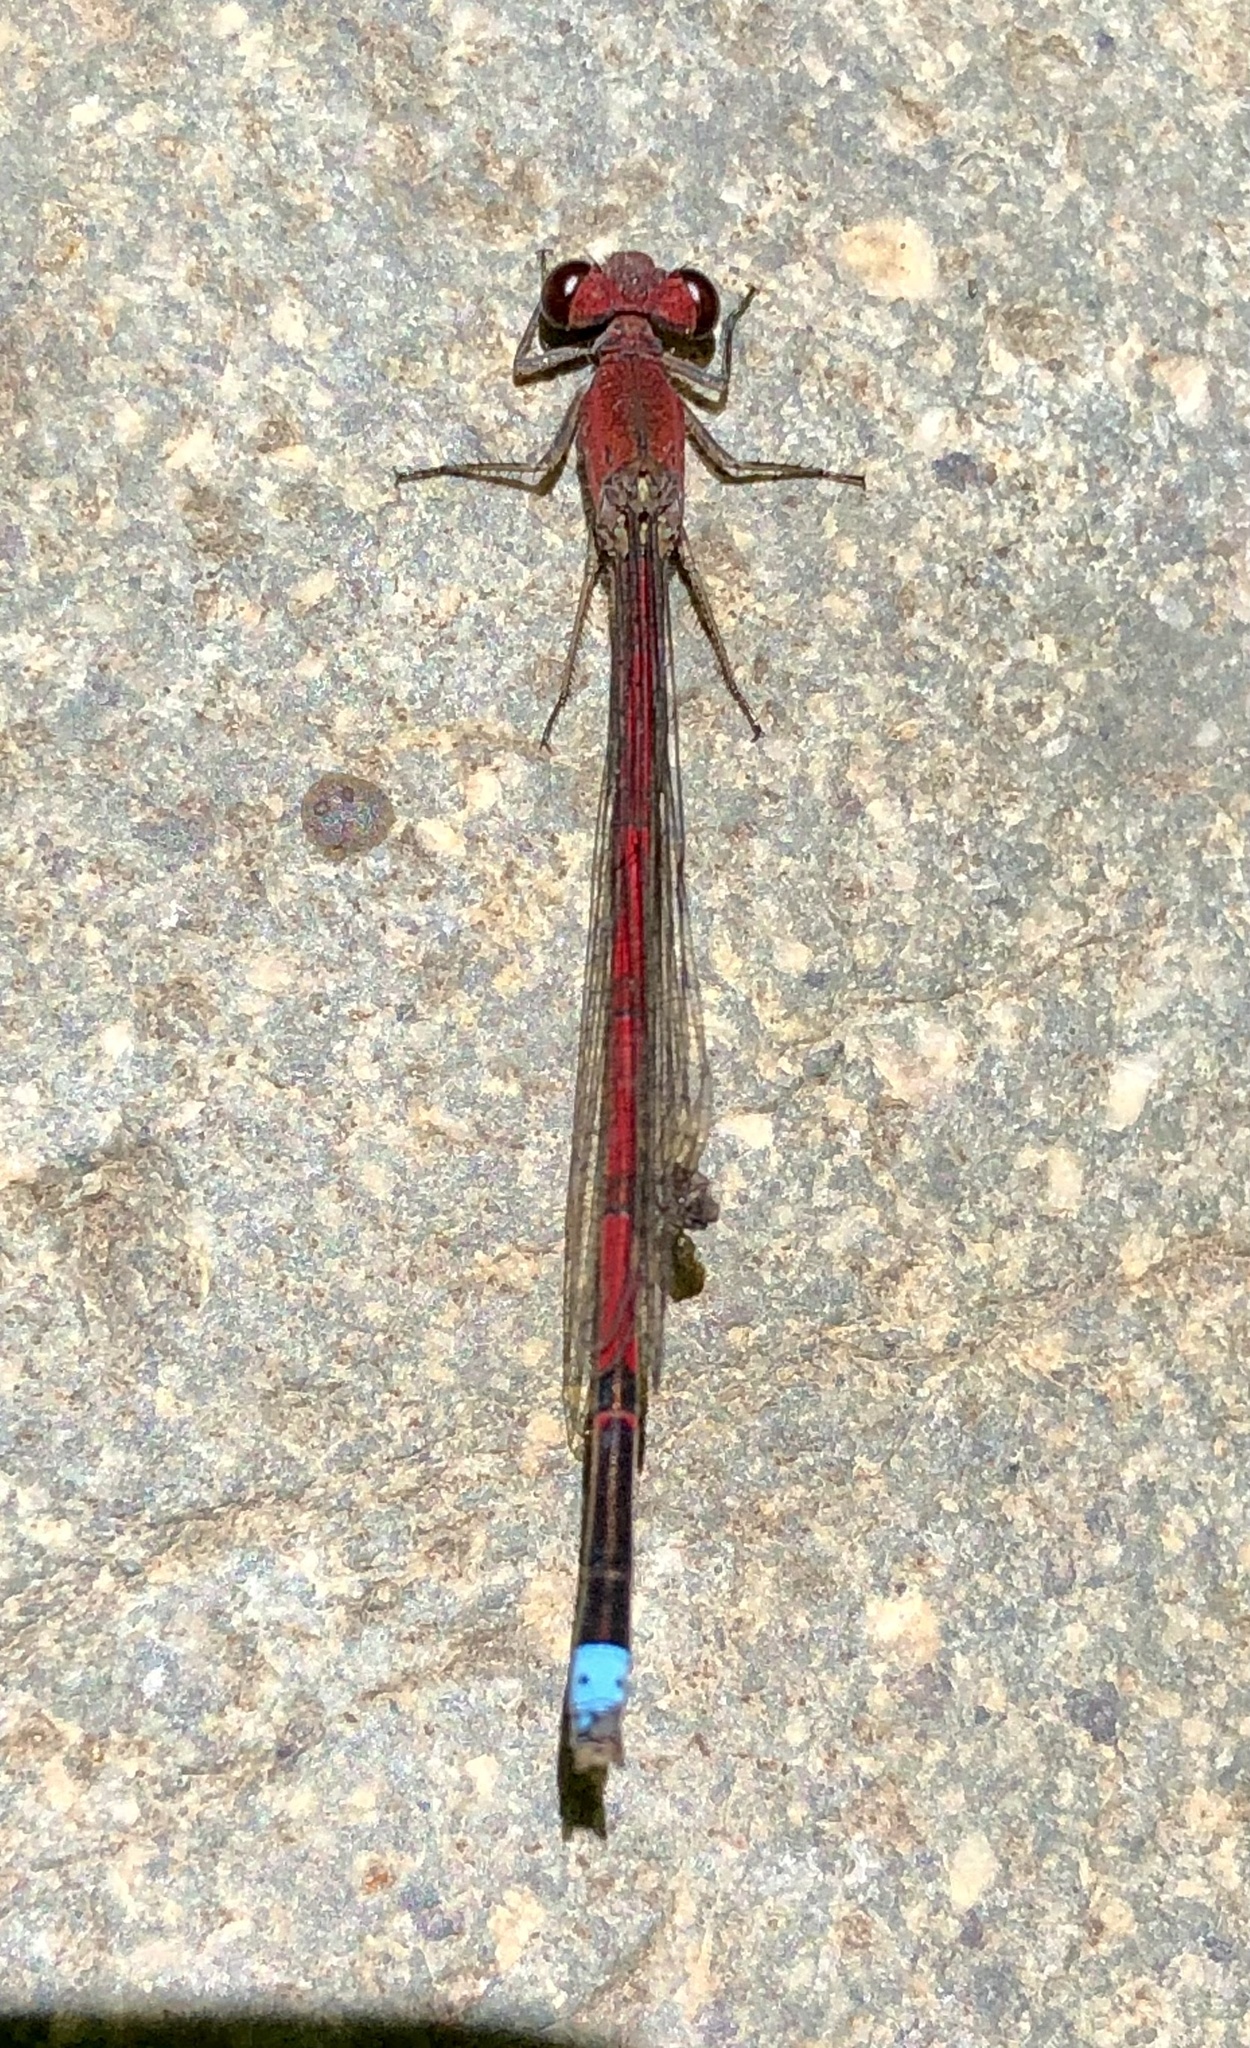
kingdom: Animalia
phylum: Arthropoda
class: Insecta
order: Odonata
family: Coenagrionidae
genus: Oxyagrion
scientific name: Oxyagrion terminale
